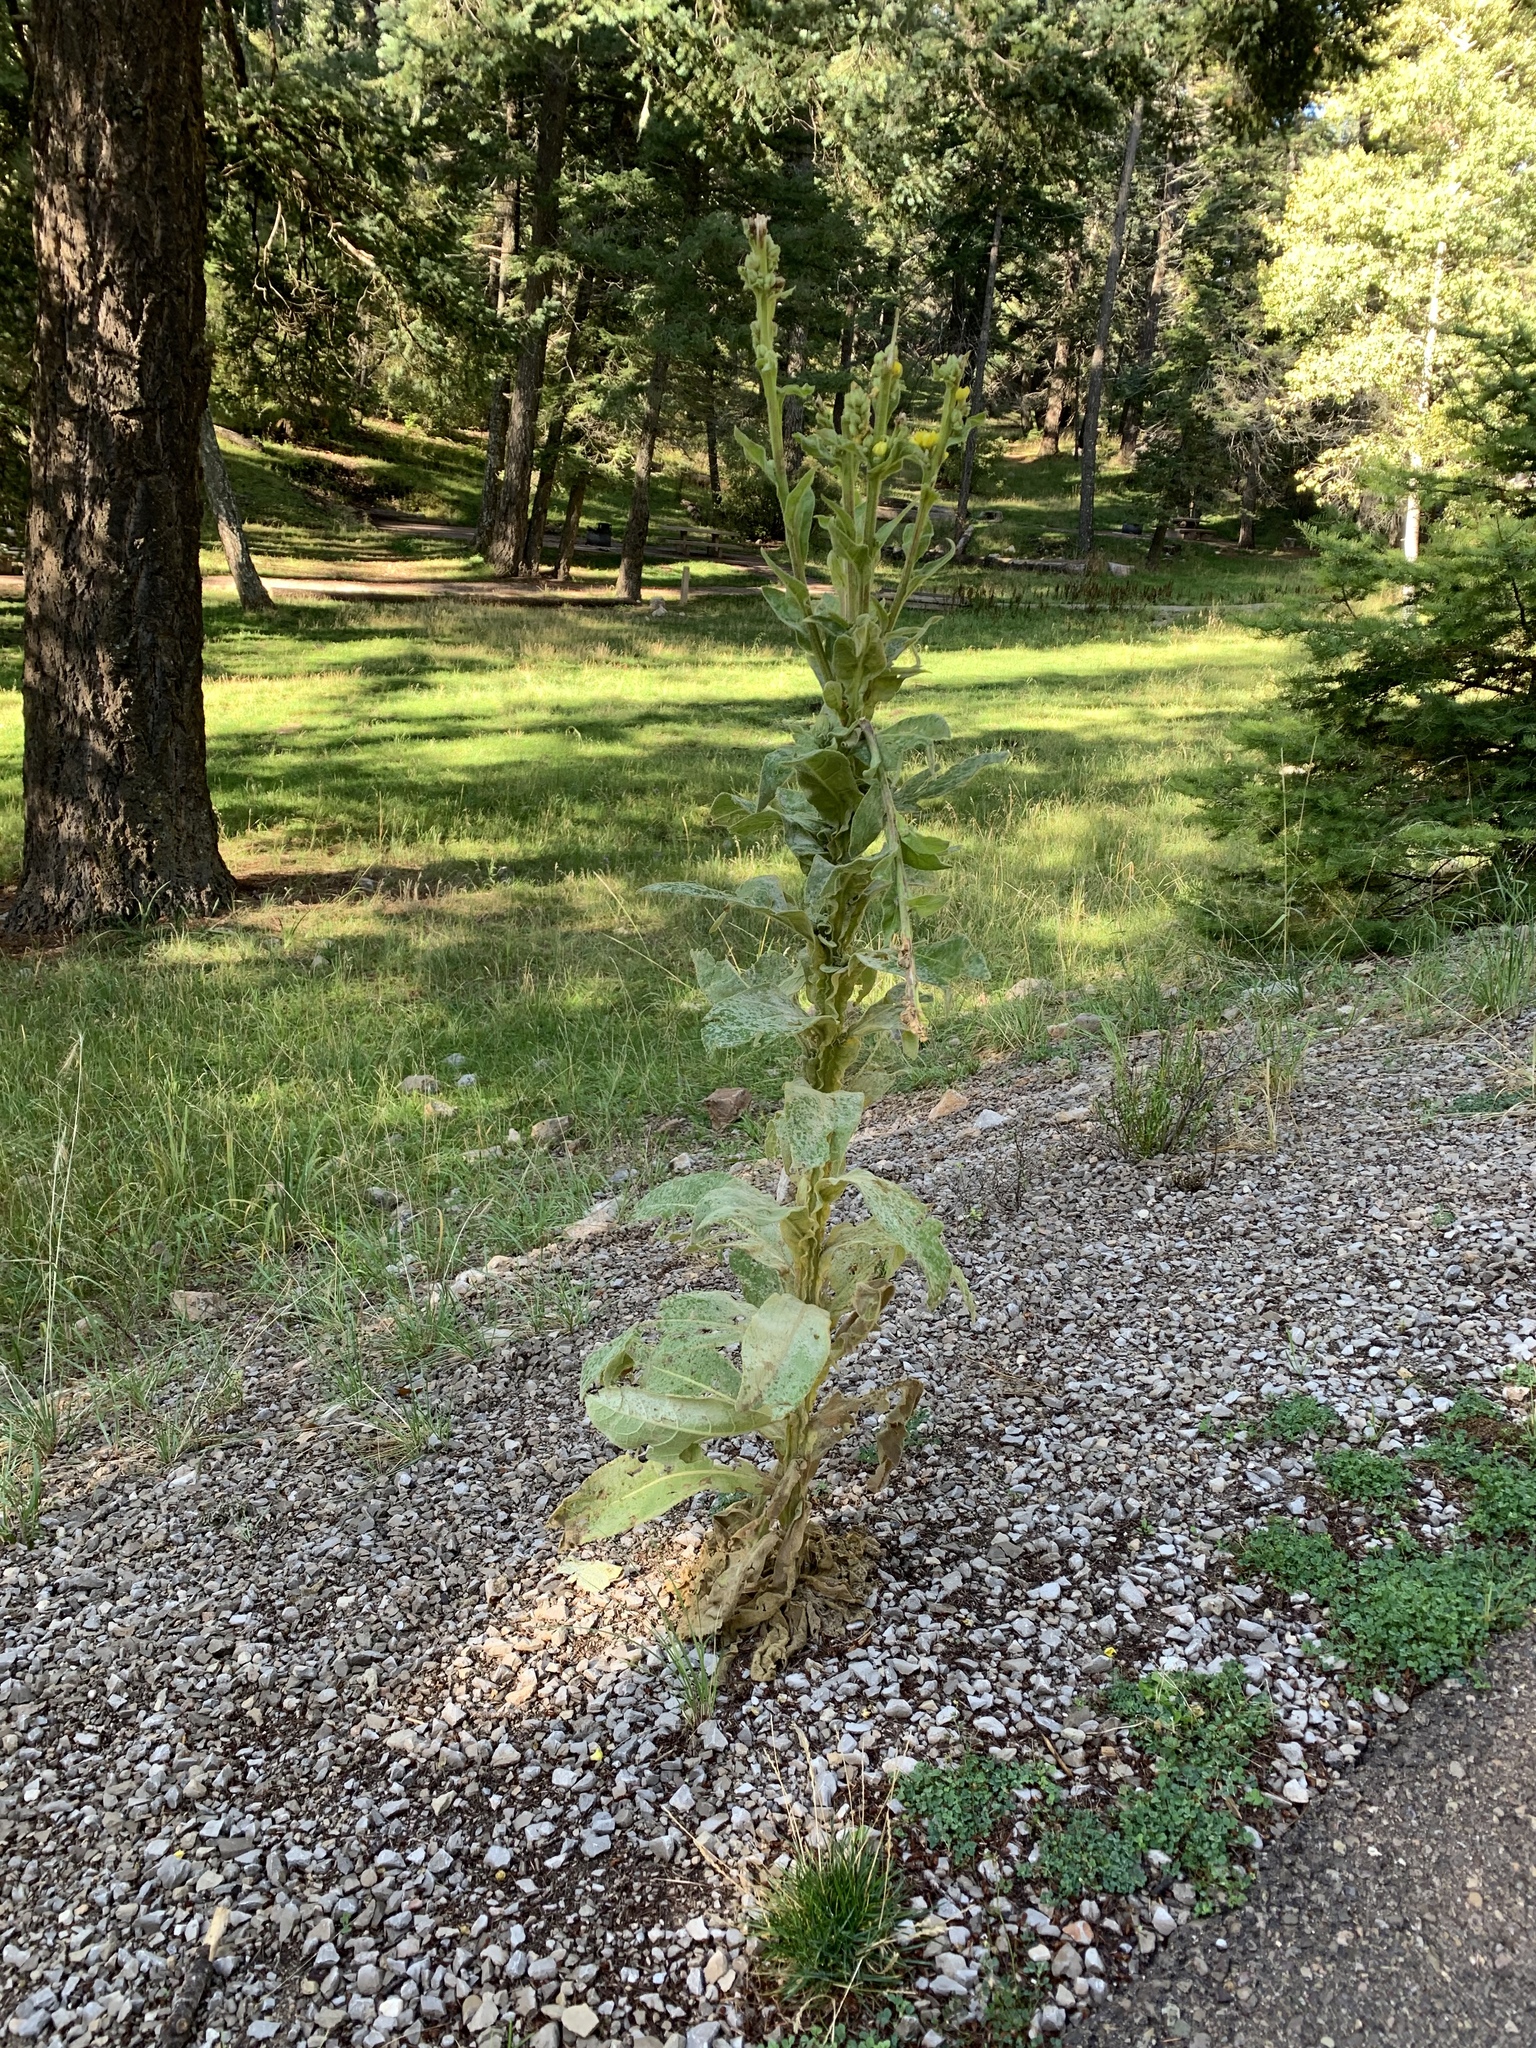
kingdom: Plantae
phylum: Tracheophyta
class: Magnoliopsida
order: Lamiales
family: Scrophulariaceae
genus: Verbascum
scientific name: Verbascum thapsus
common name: Common mullein
